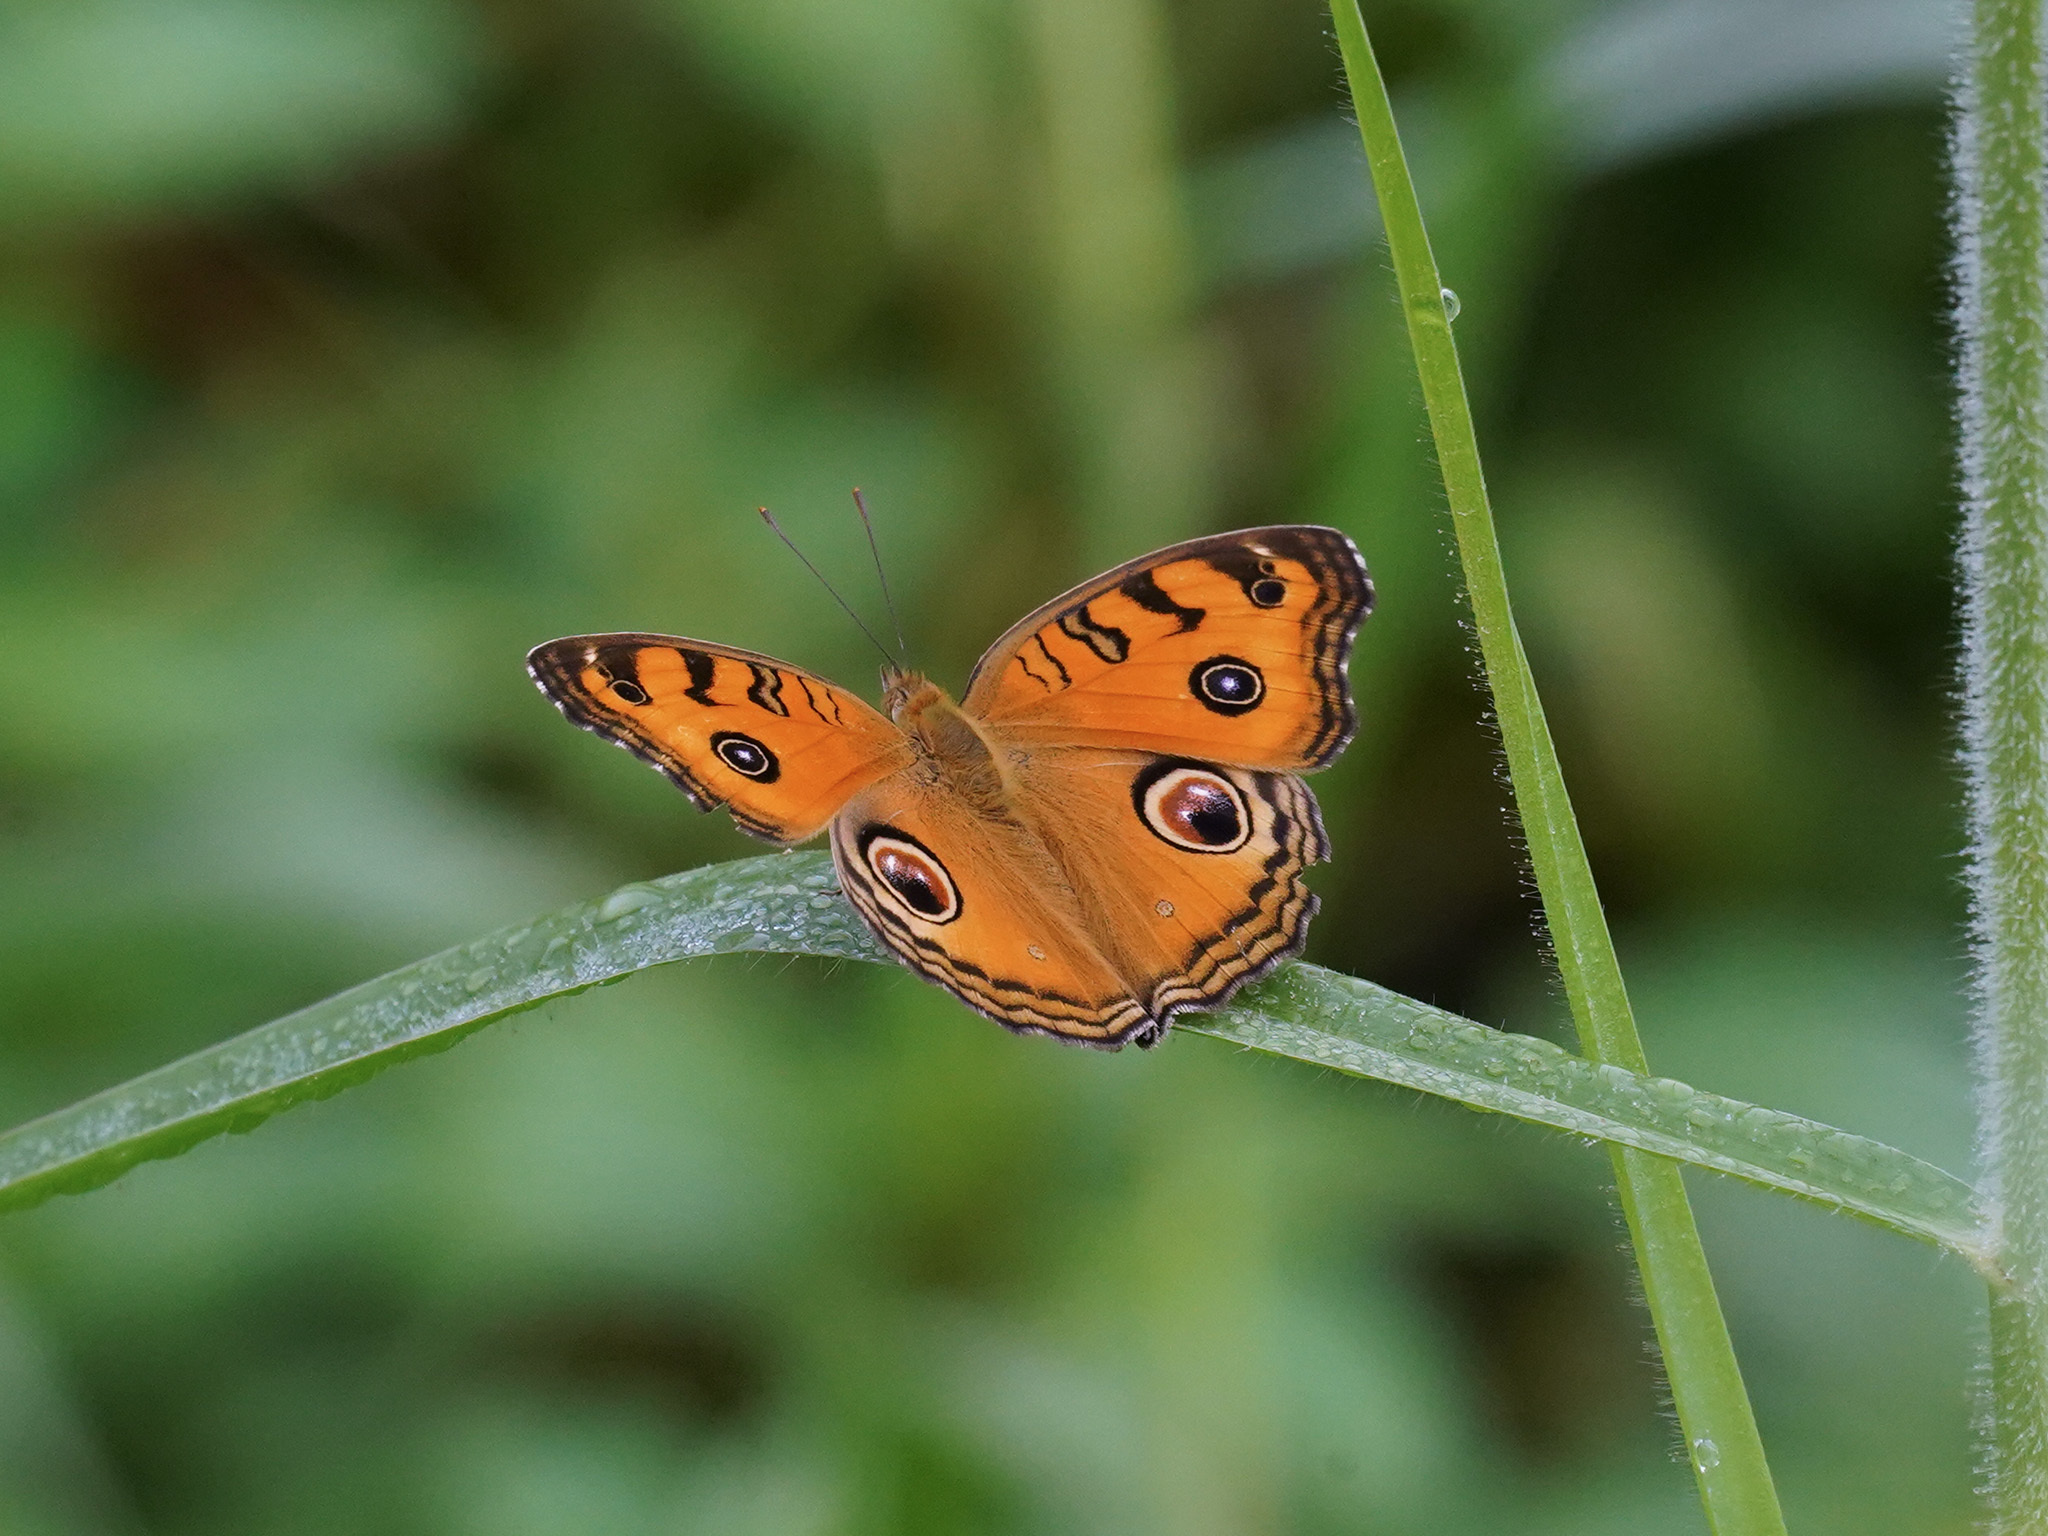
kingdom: Animalia
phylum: Arthropoda
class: Insecta
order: Lepidoptera
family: Nymphalidae
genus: Junonia
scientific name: Junonia almana
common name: Peacock pansy
